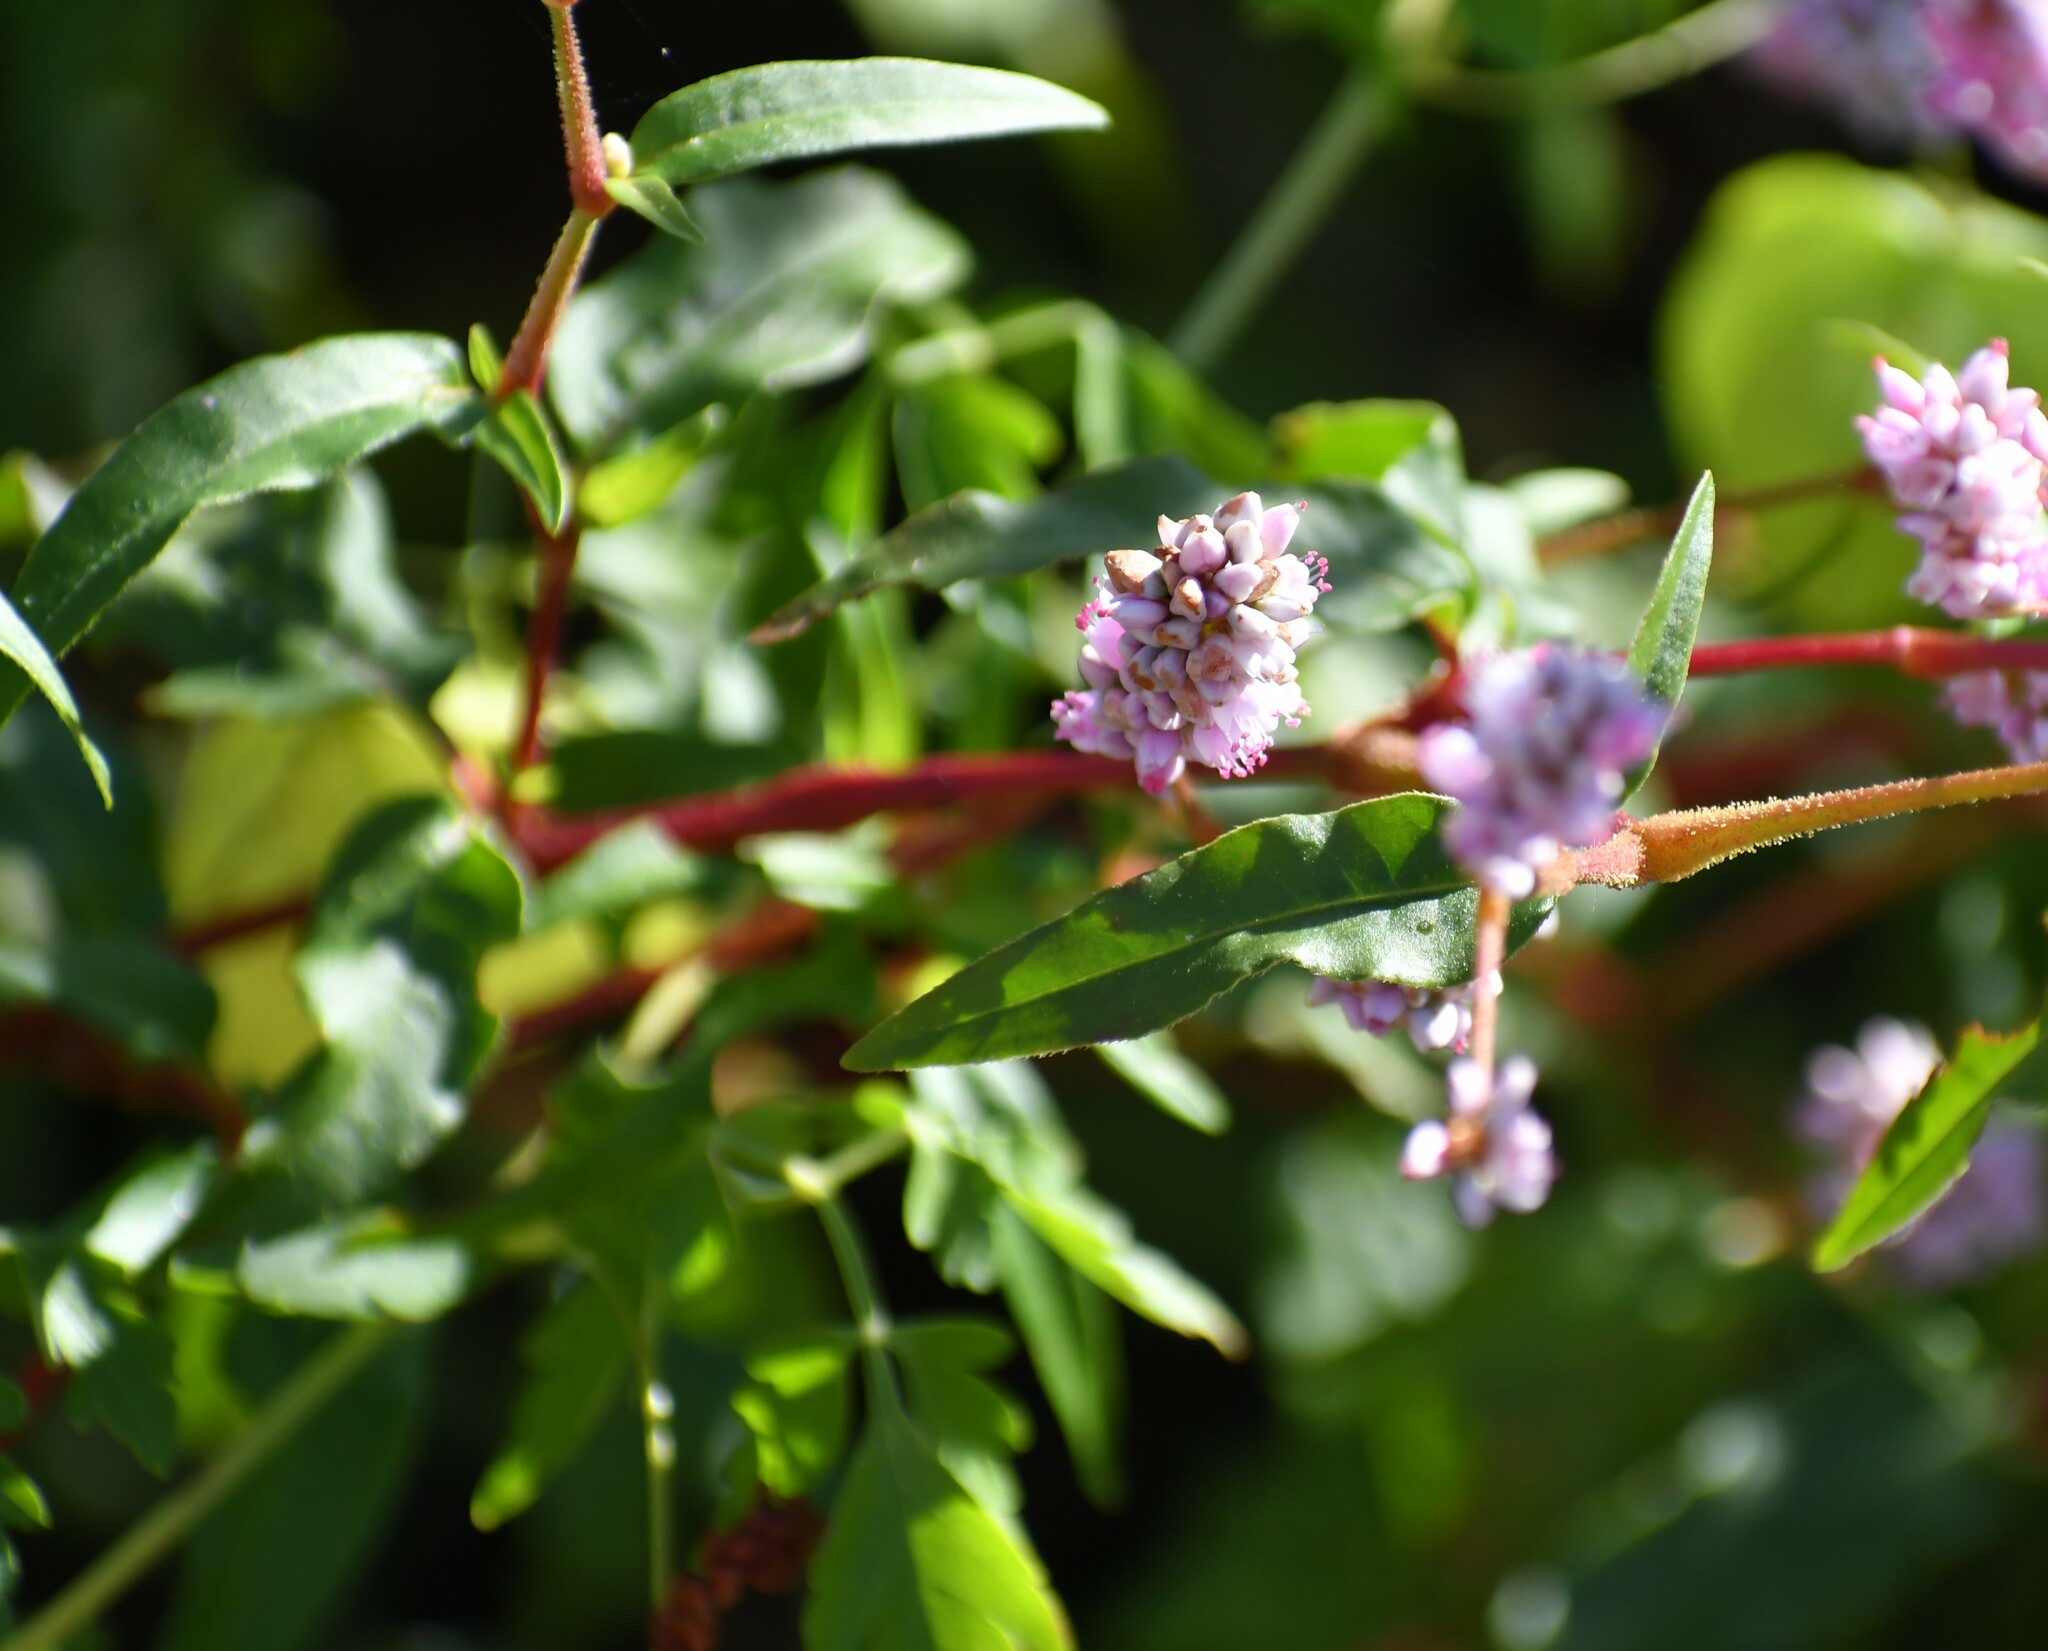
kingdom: Plantae
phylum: Tracheophyta
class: Magnoliopsida
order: Caryophyllales
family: Polygonaceae
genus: Persicaria
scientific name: Persicaria bicornis
